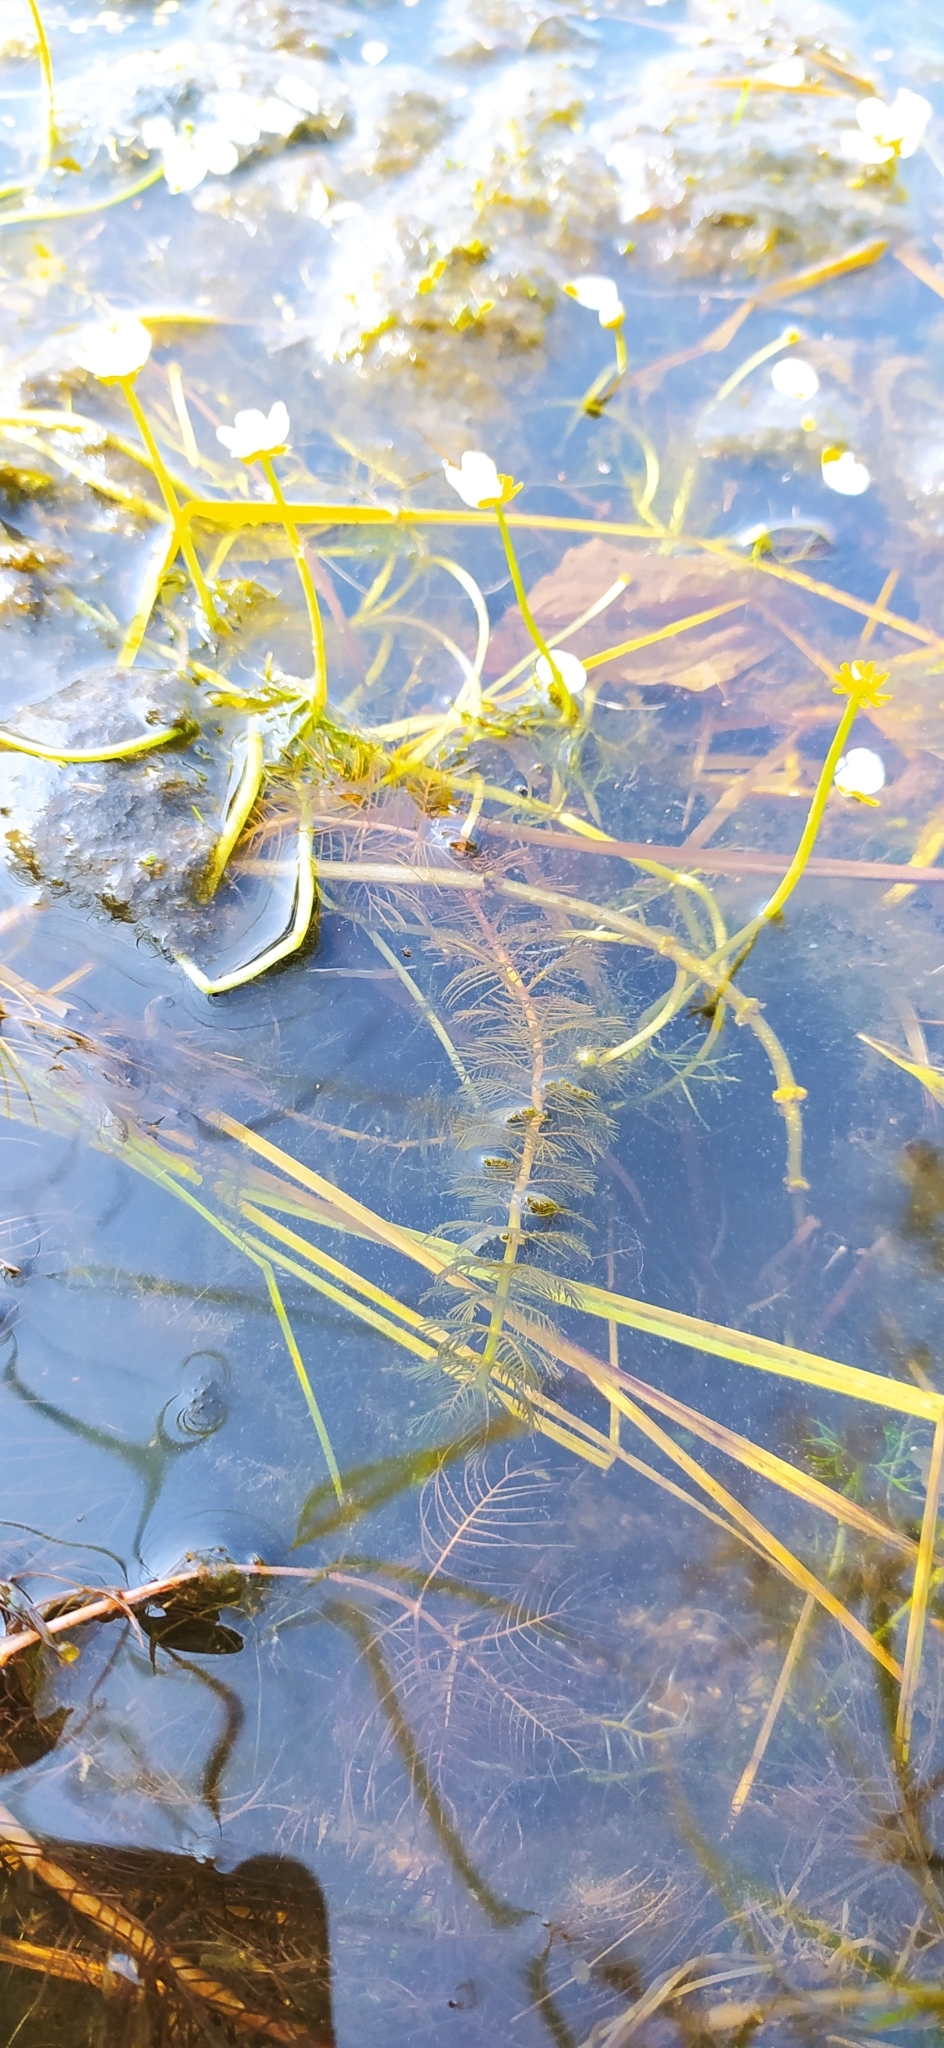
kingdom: Plantae
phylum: Tracheophyta
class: Magnoliopsida
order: Ranunculales
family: Ranunculaceae
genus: Ranunculus
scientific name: Ranunculus circinatus
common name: Fan-leaved water-crowfoot
